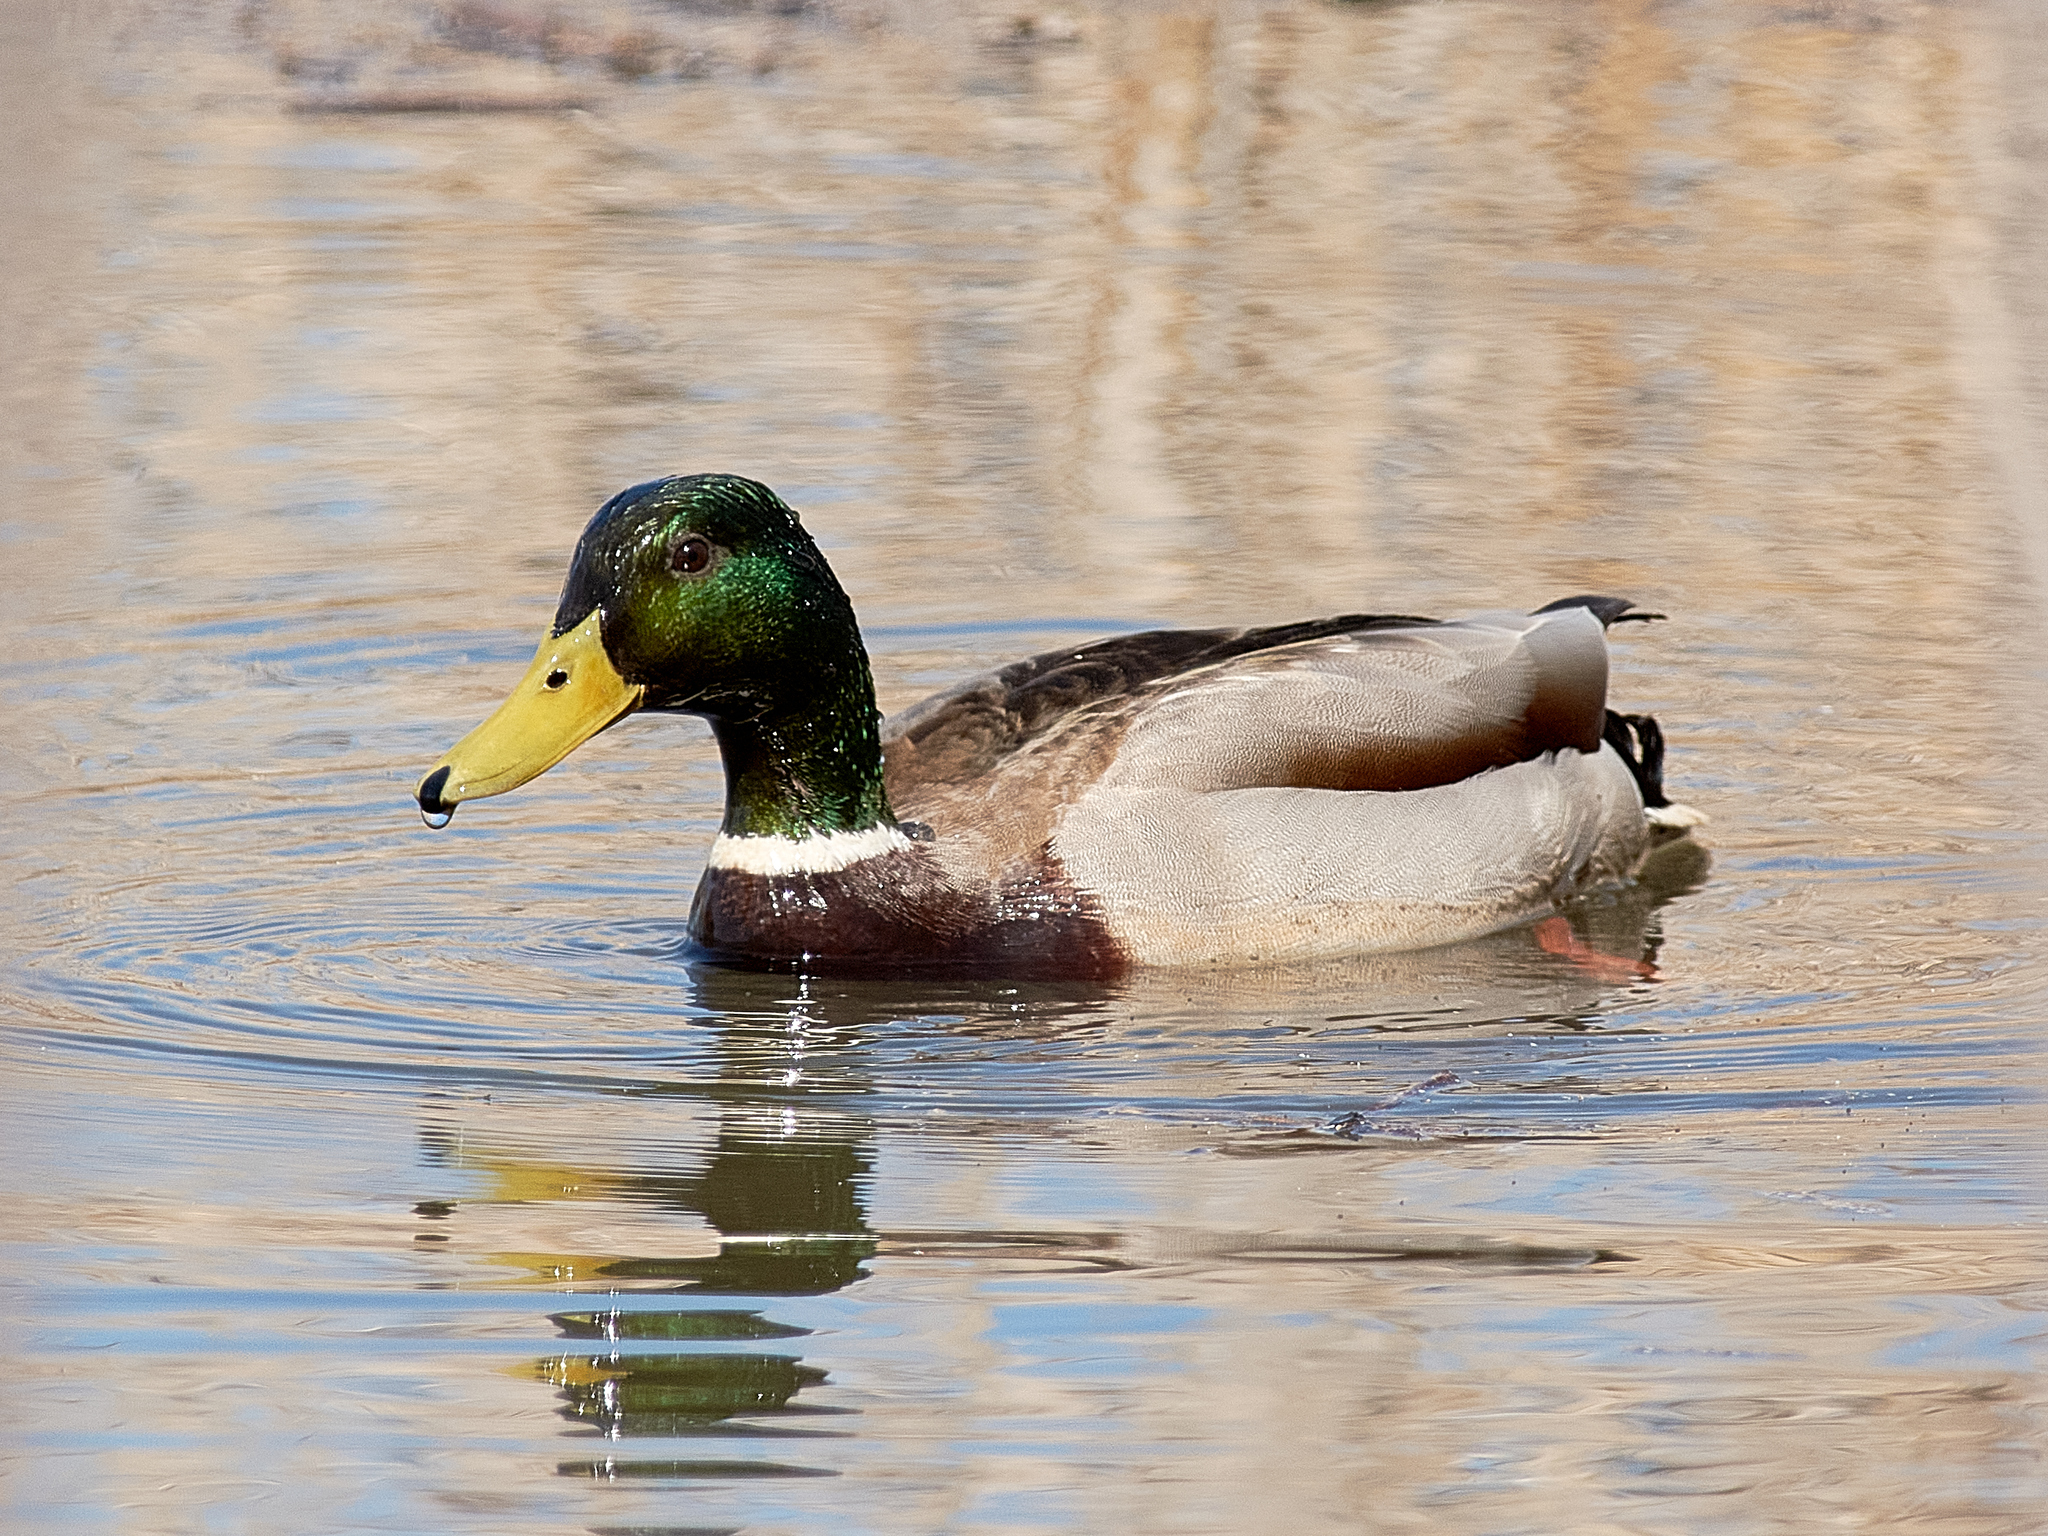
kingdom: Animalia
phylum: Chordata
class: Aves
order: Anseriformes
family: Anatidae
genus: Anas
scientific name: Anas platyrhynchos
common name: Mallard
